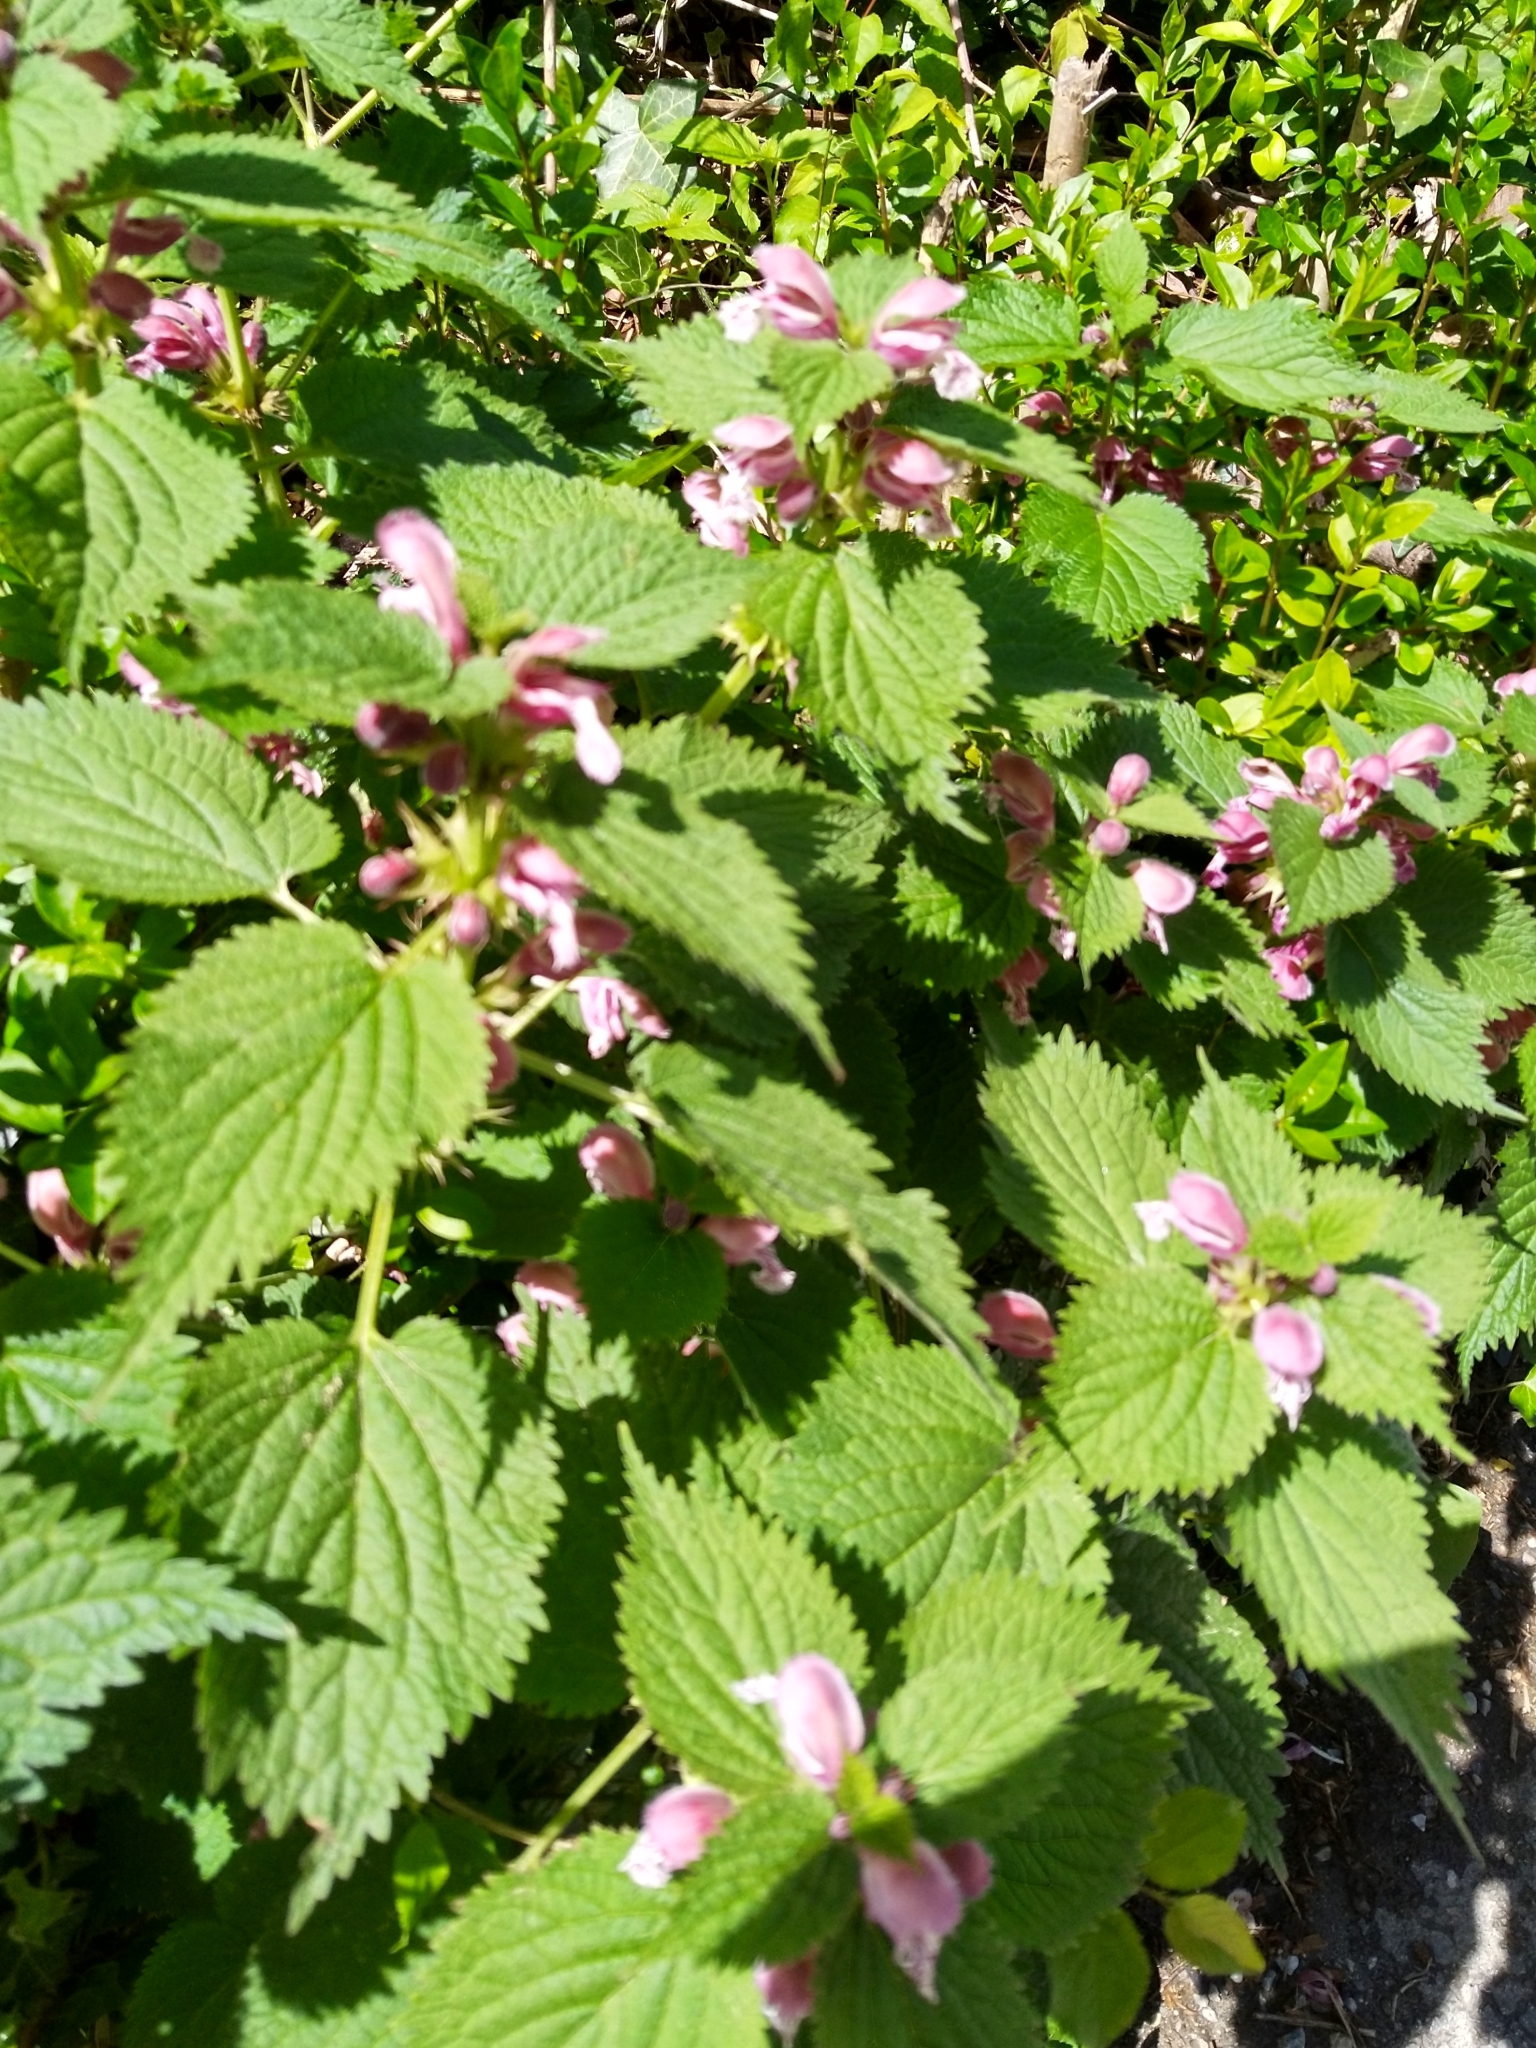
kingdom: Plantae
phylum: Tracheophyta
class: Magnoliopsida
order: Lamiales
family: Lamiaceae
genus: Lamium
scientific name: Lamium orvala
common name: Balm-leaved archangel
